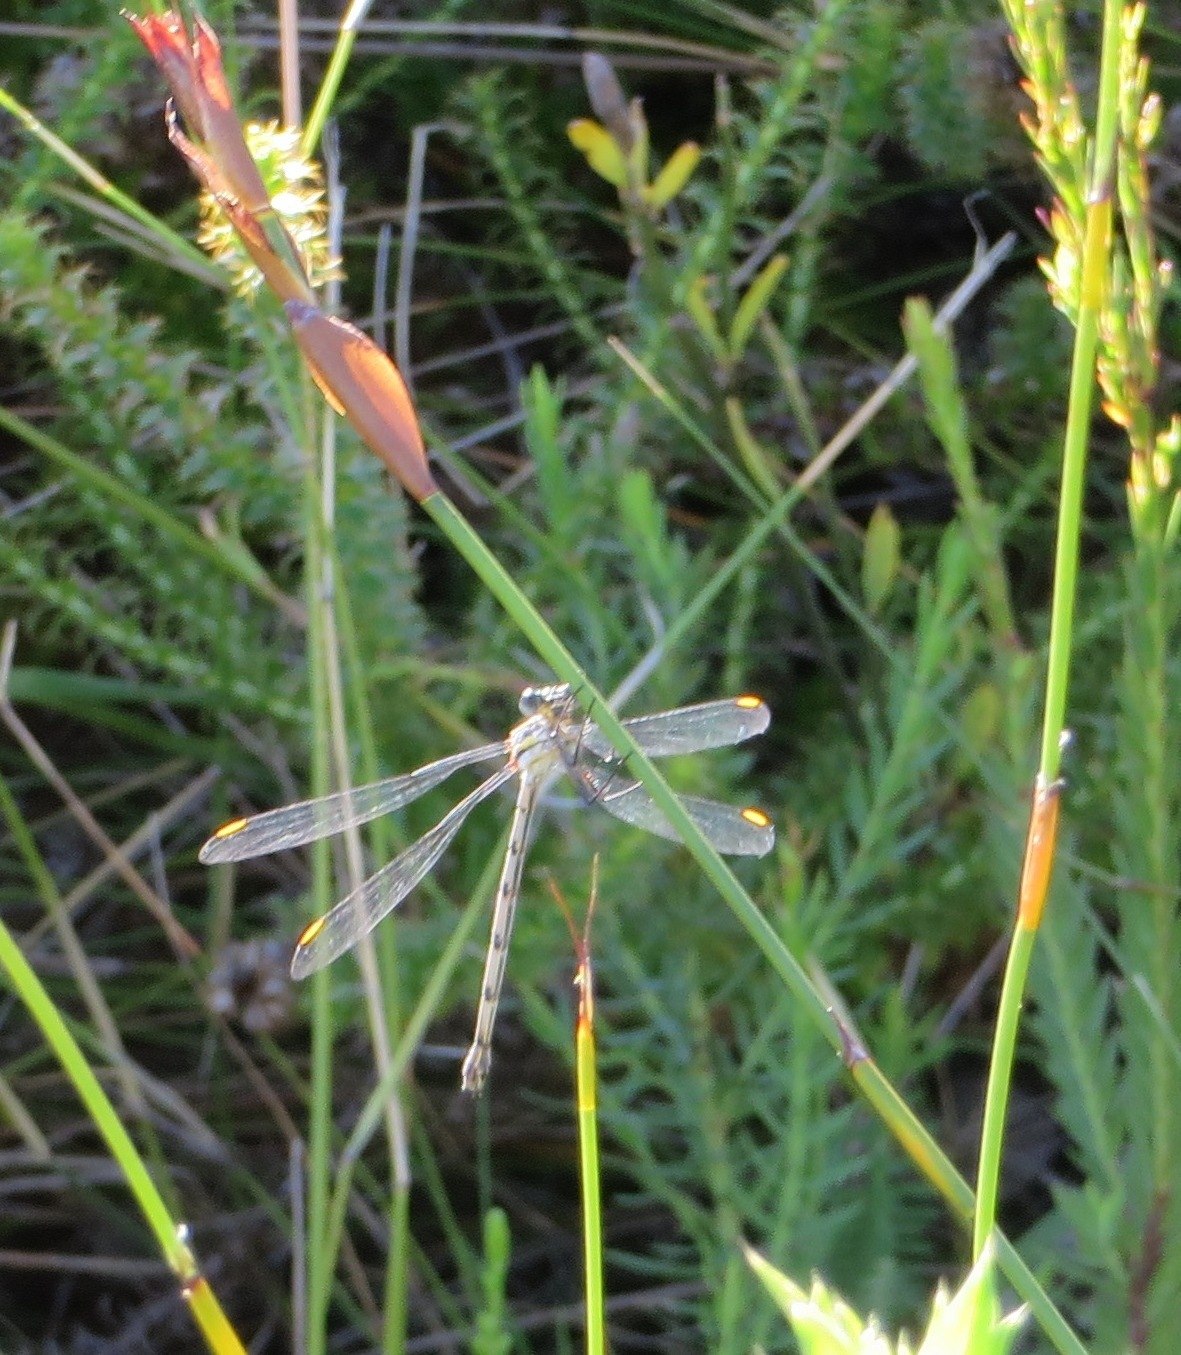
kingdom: Animalia
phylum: Arthropoda
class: Insecta
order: Odonata
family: Synlestidae
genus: Chlorolestes
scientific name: Chlorolestes conspicuus
